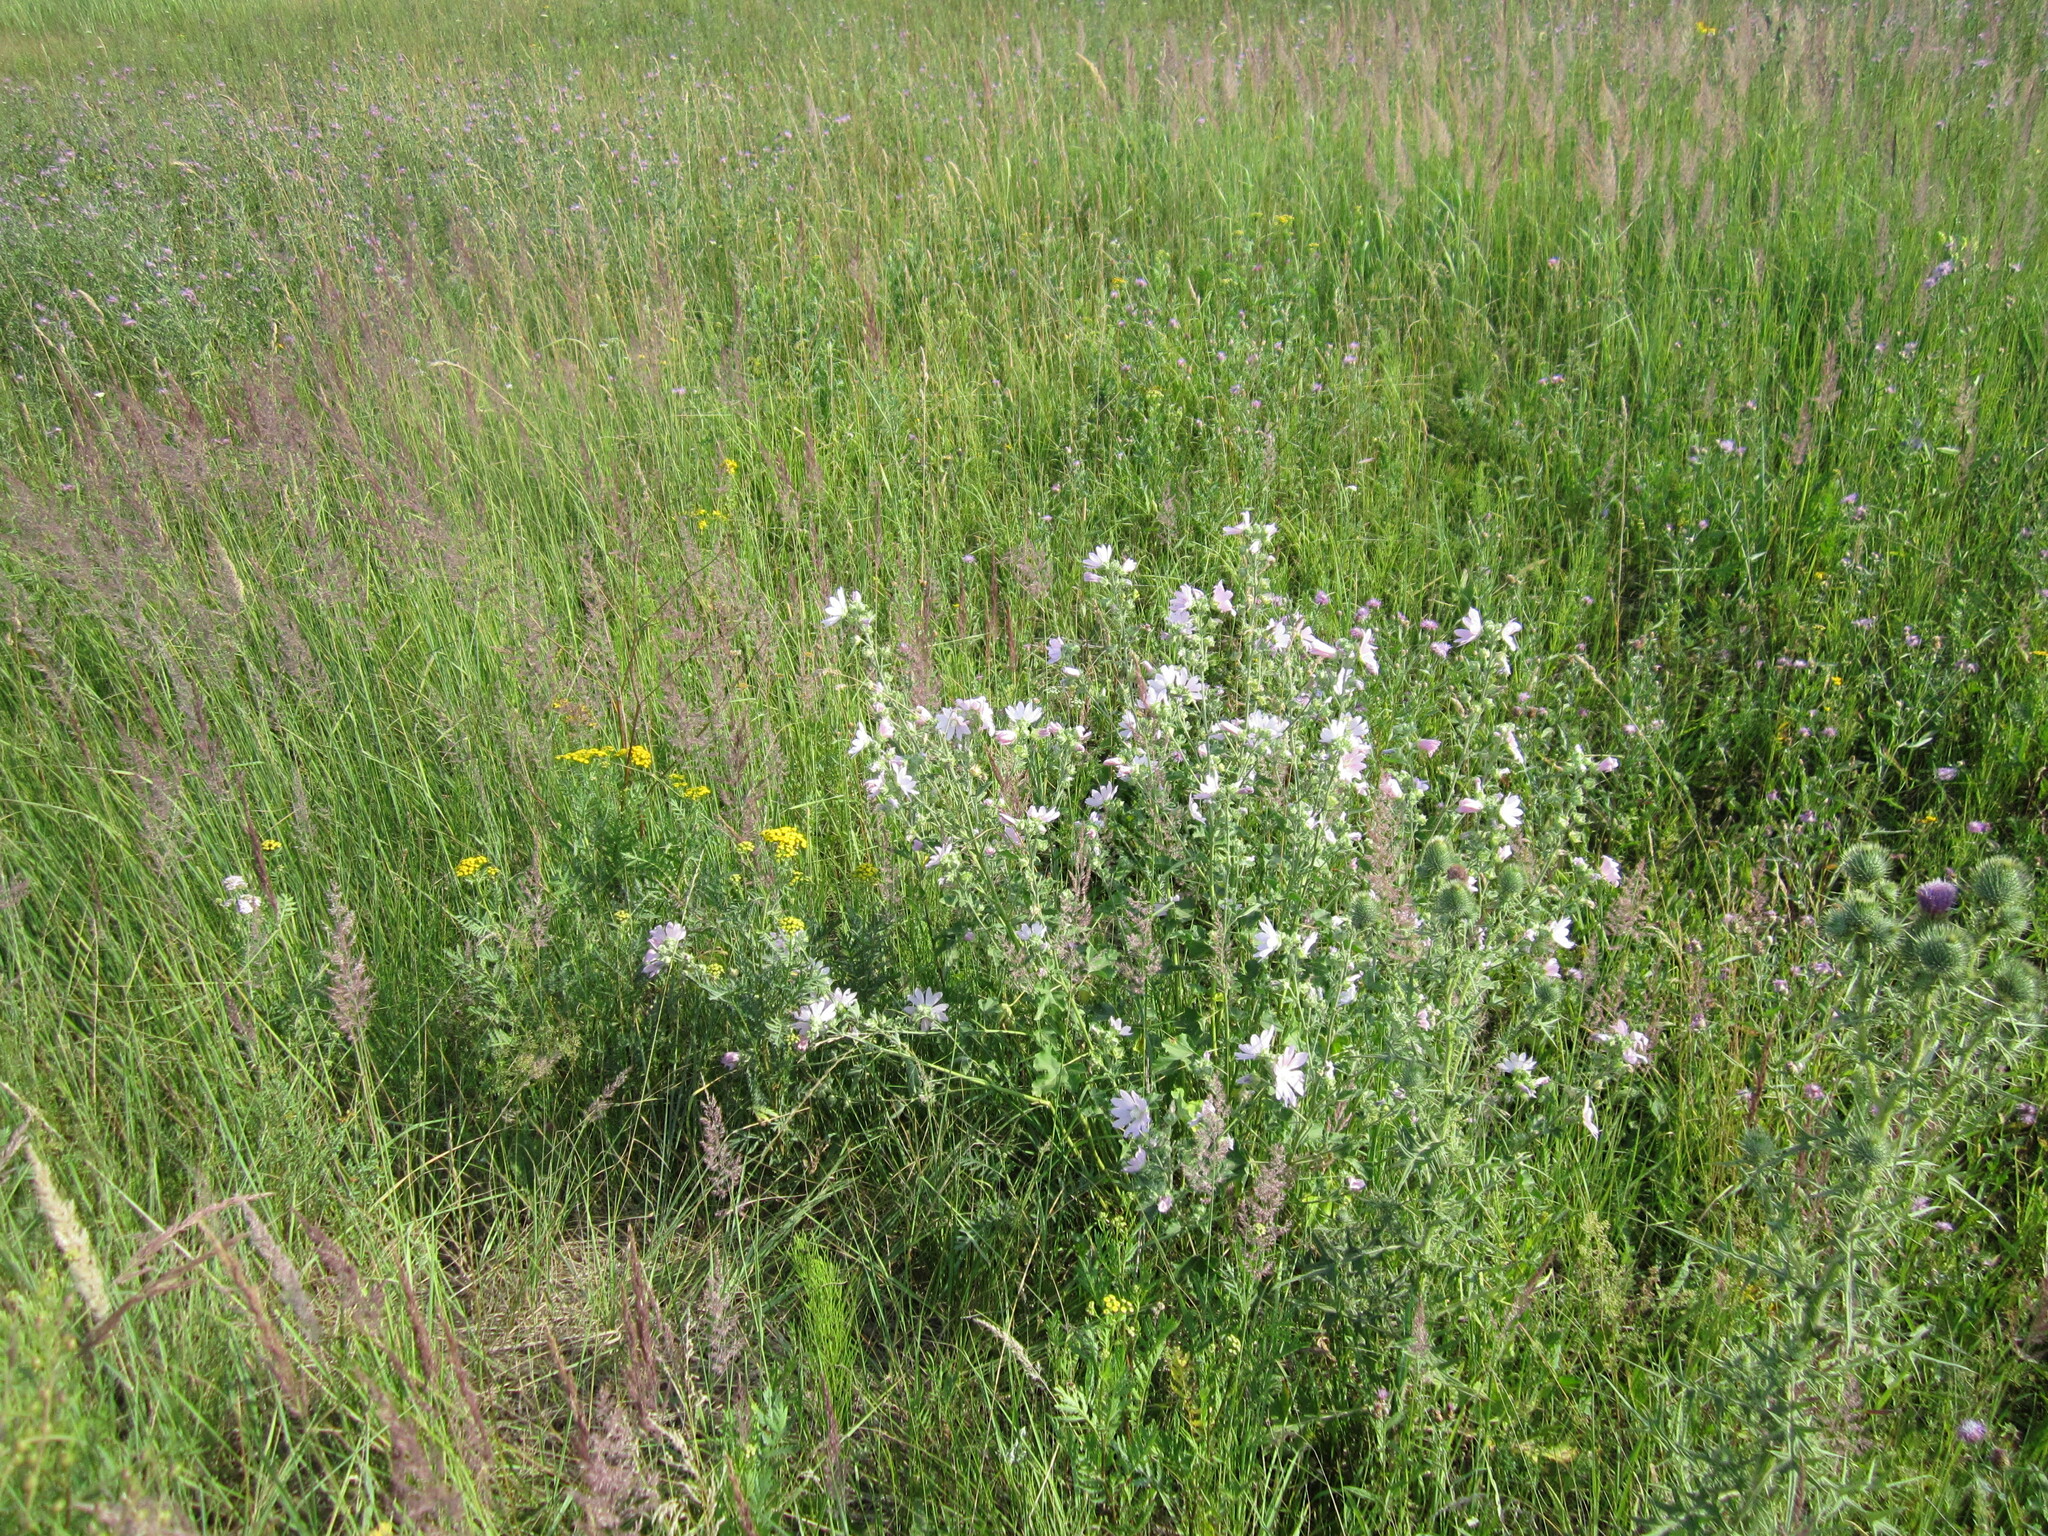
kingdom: Plantae
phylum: Tracheophyta
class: Magnoliopsida
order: Malvales
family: Malvaceae
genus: Malva
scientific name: Malva thuringiaca
